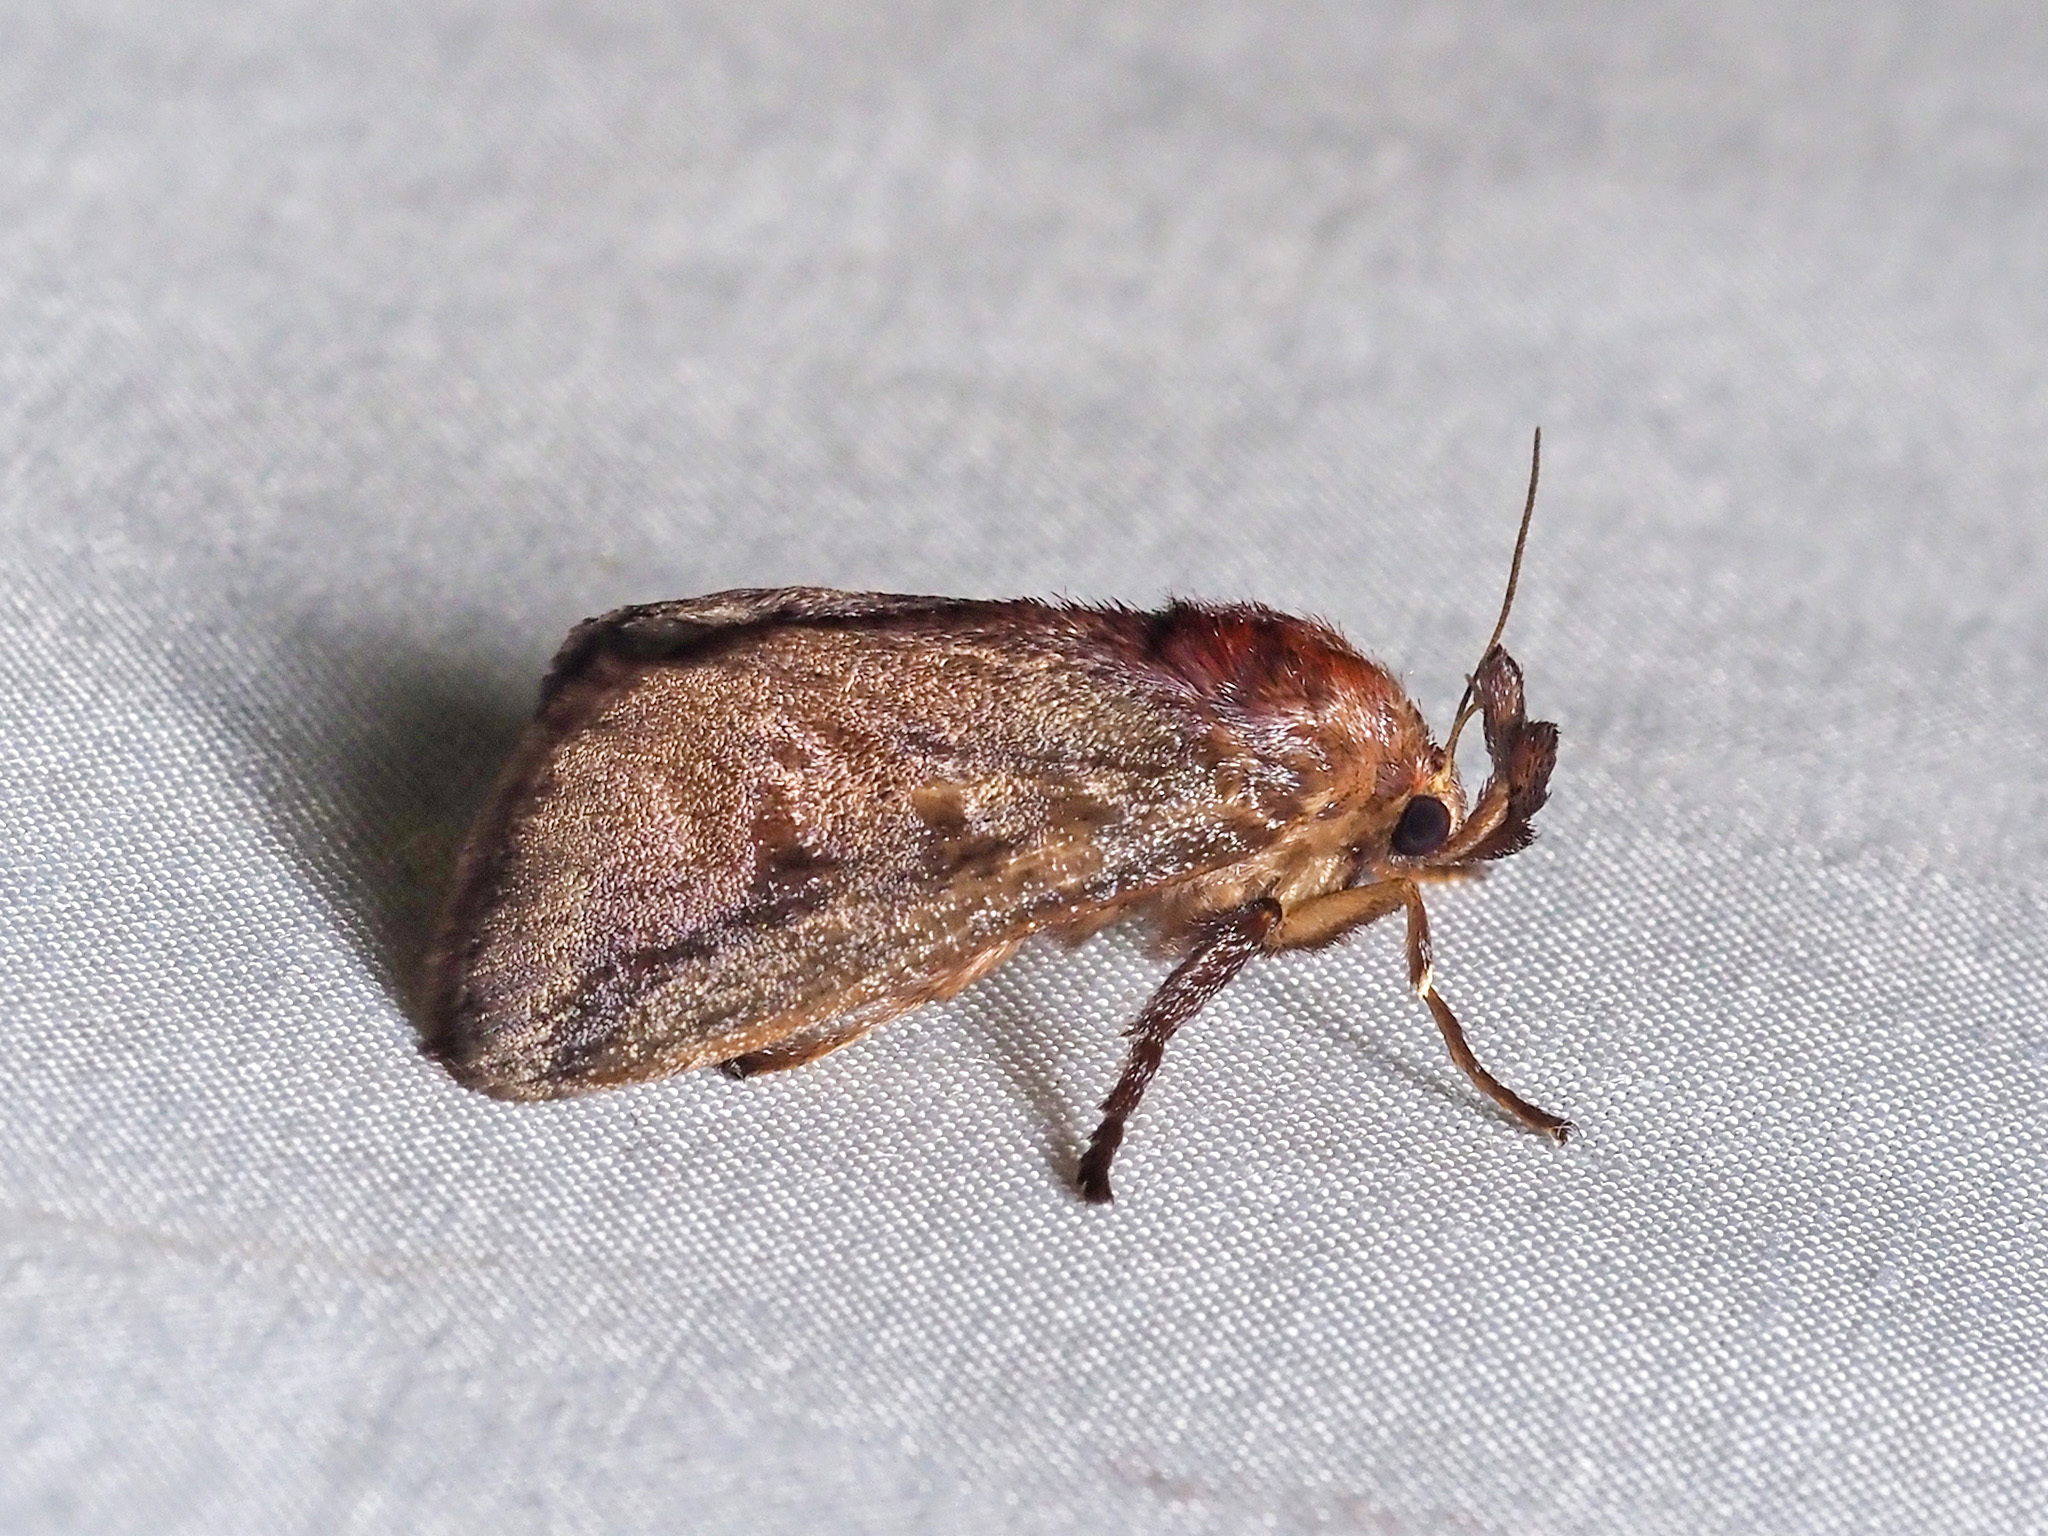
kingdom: Animalia
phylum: Arthropoda
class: Insecta
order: Lepidoptera
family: Limacodidae
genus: Hyphorma
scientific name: Hyphorma margaritacea
